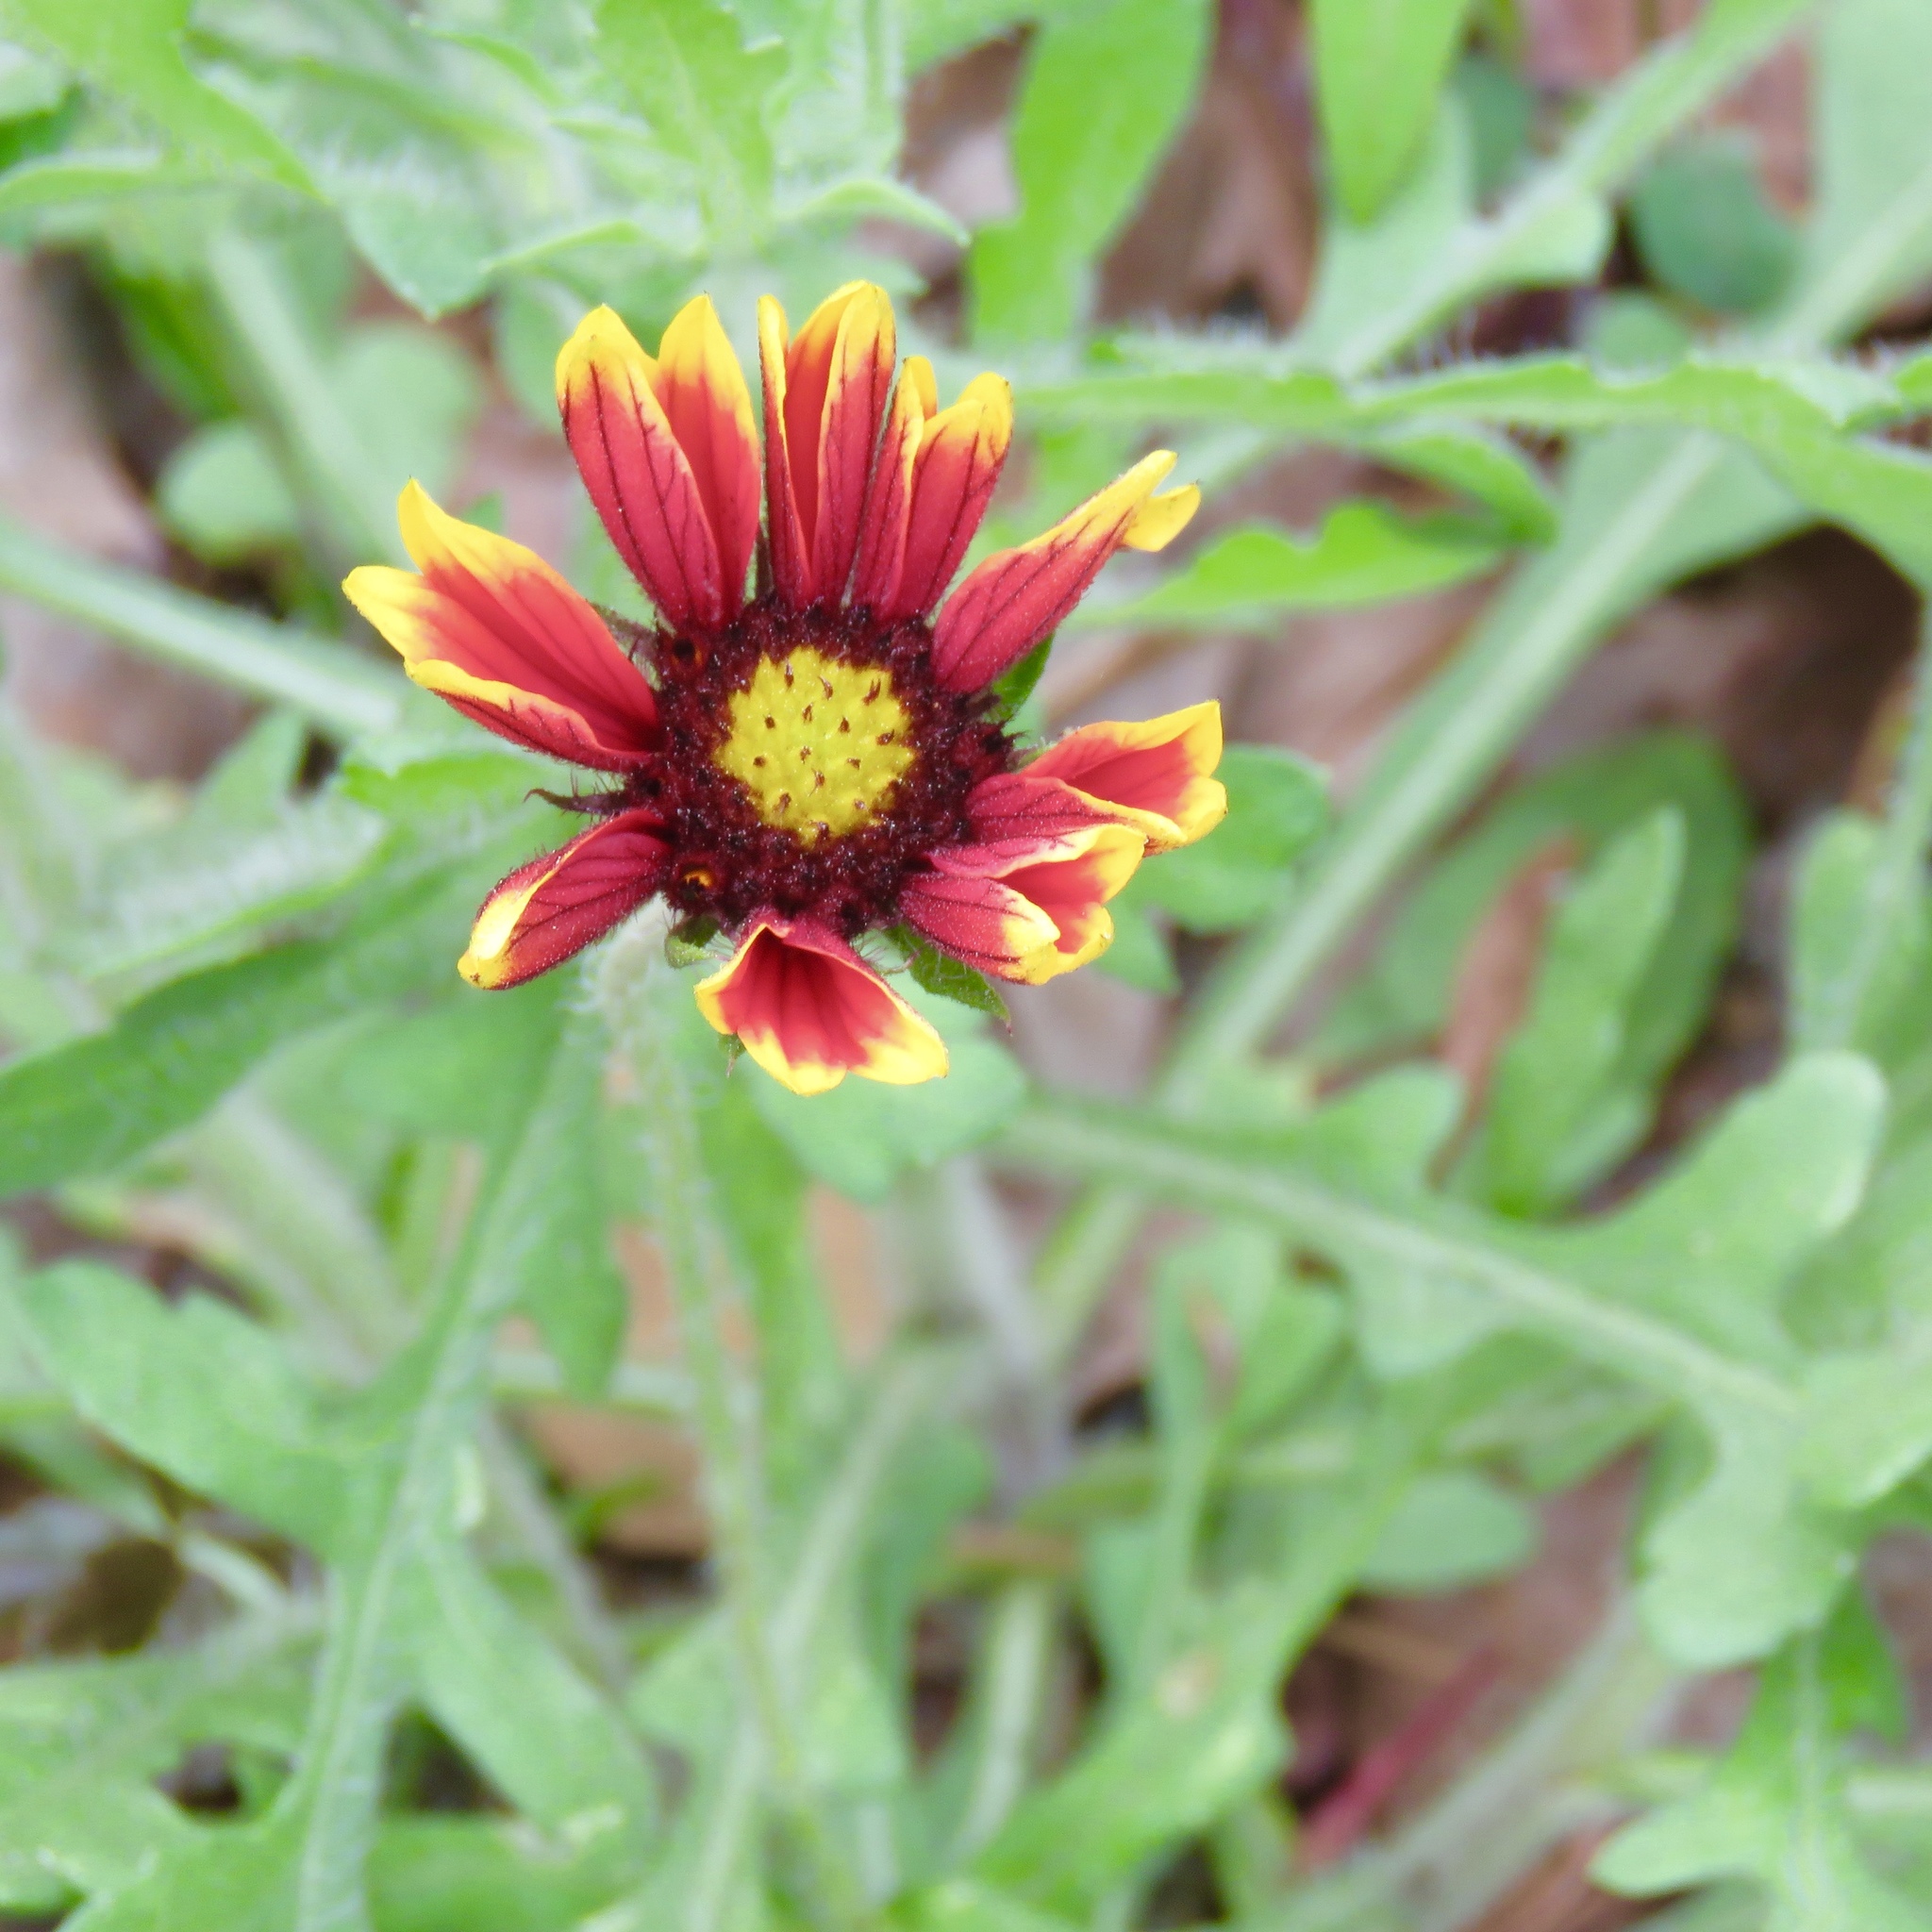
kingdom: Plantae
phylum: Tracheophyta
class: Magnoliopsida
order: Asterales
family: Asteraceae
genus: Gaillardia
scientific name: Gaillardia pulchella
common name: Firewheel
